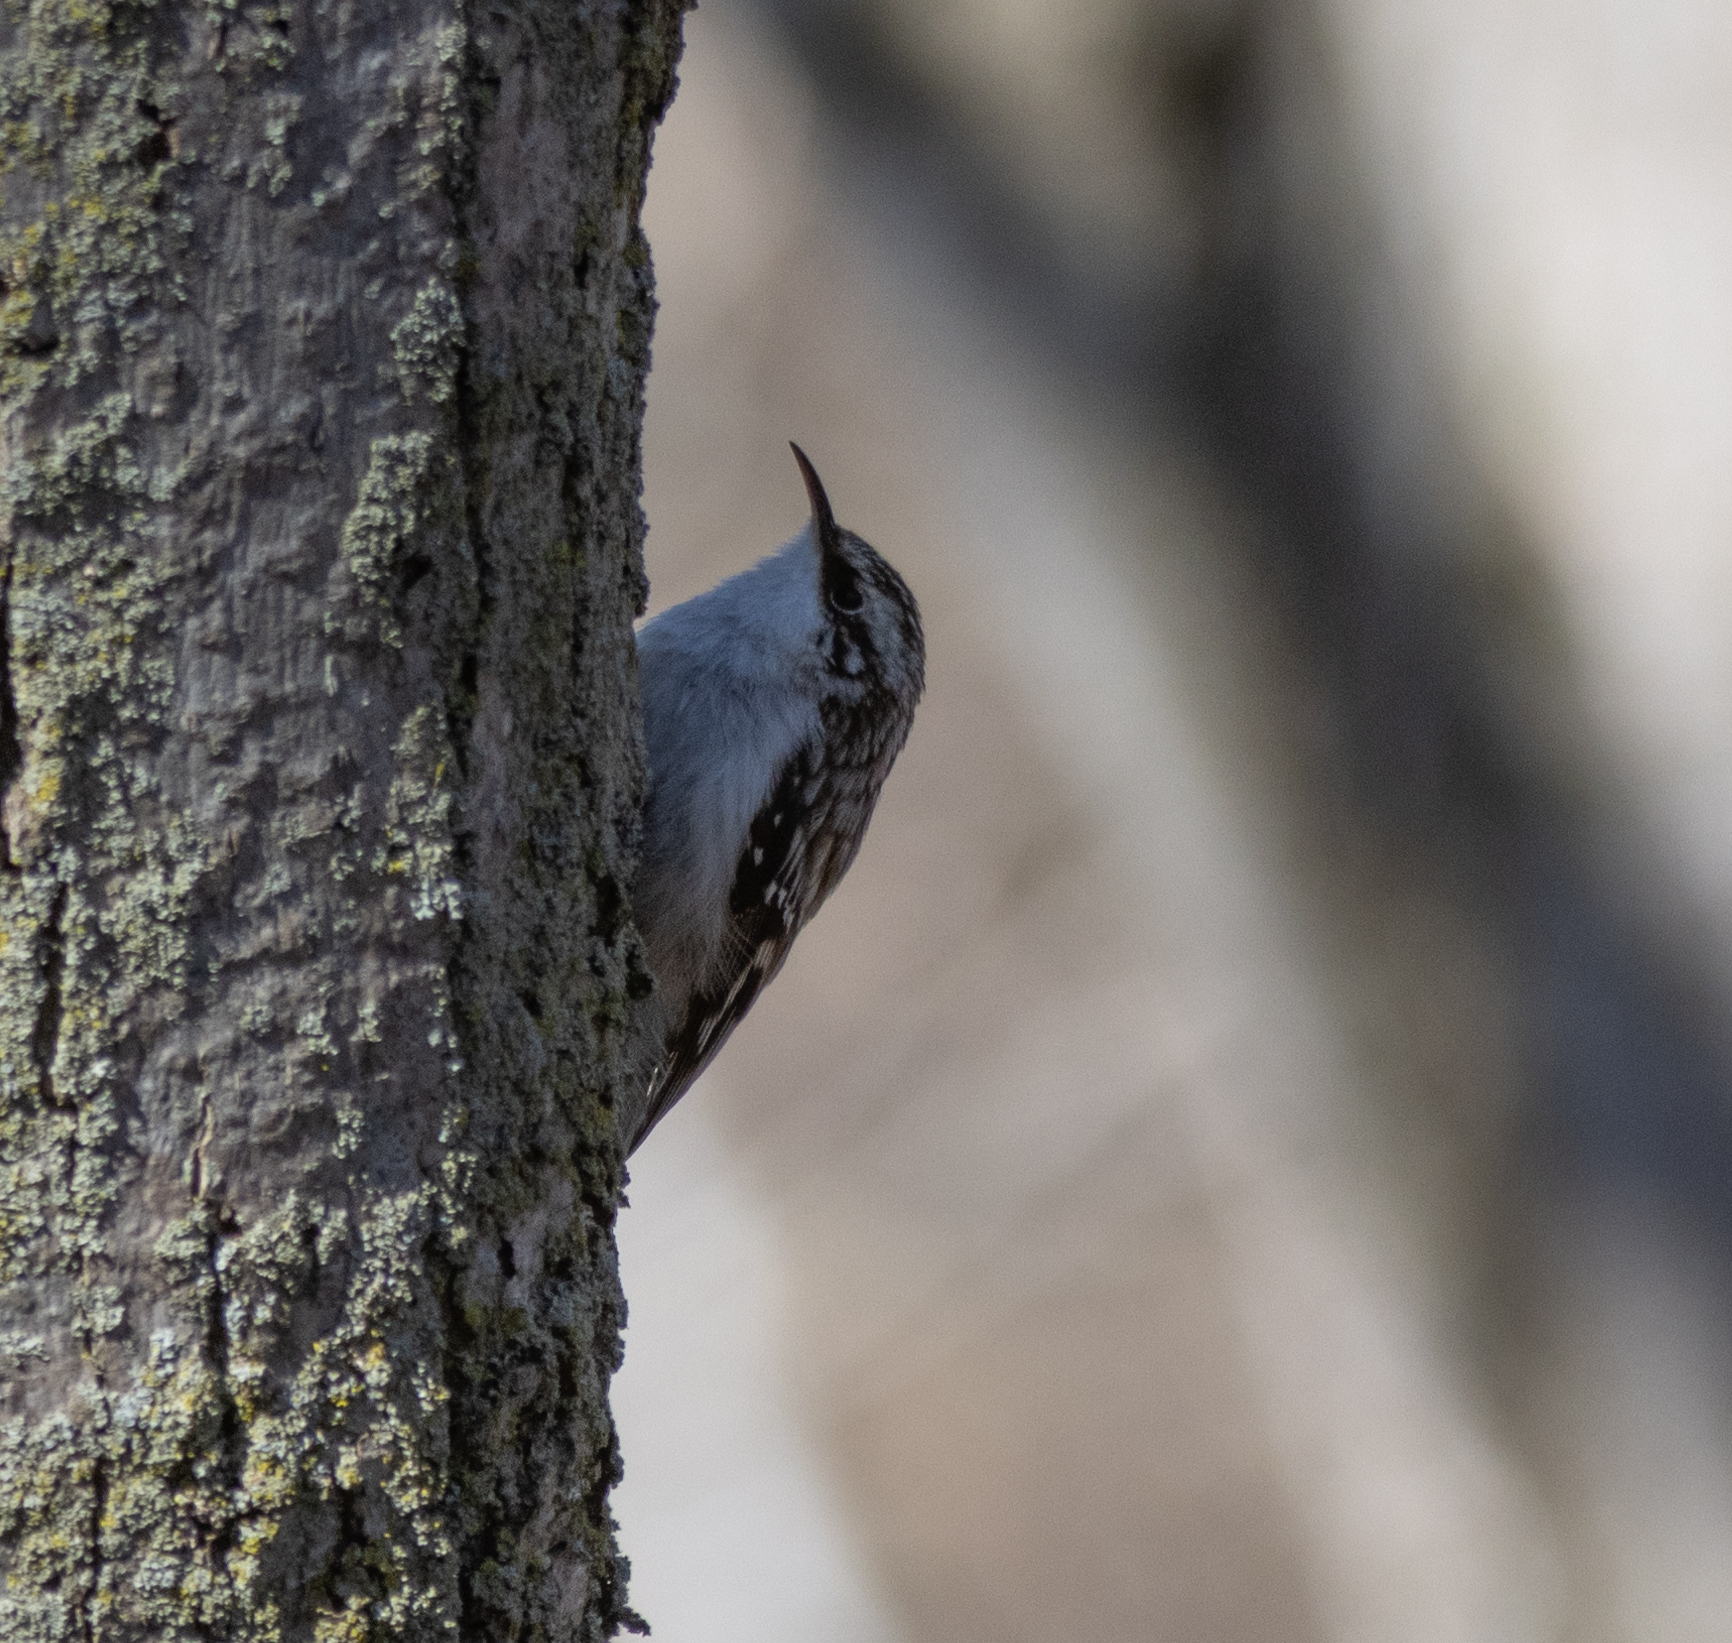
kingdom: Animalia
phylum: Chordata
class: Aves
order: Passeriformes
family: Certhiidae
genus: Certhia
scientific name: Certhia americana
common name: Brown creeper
